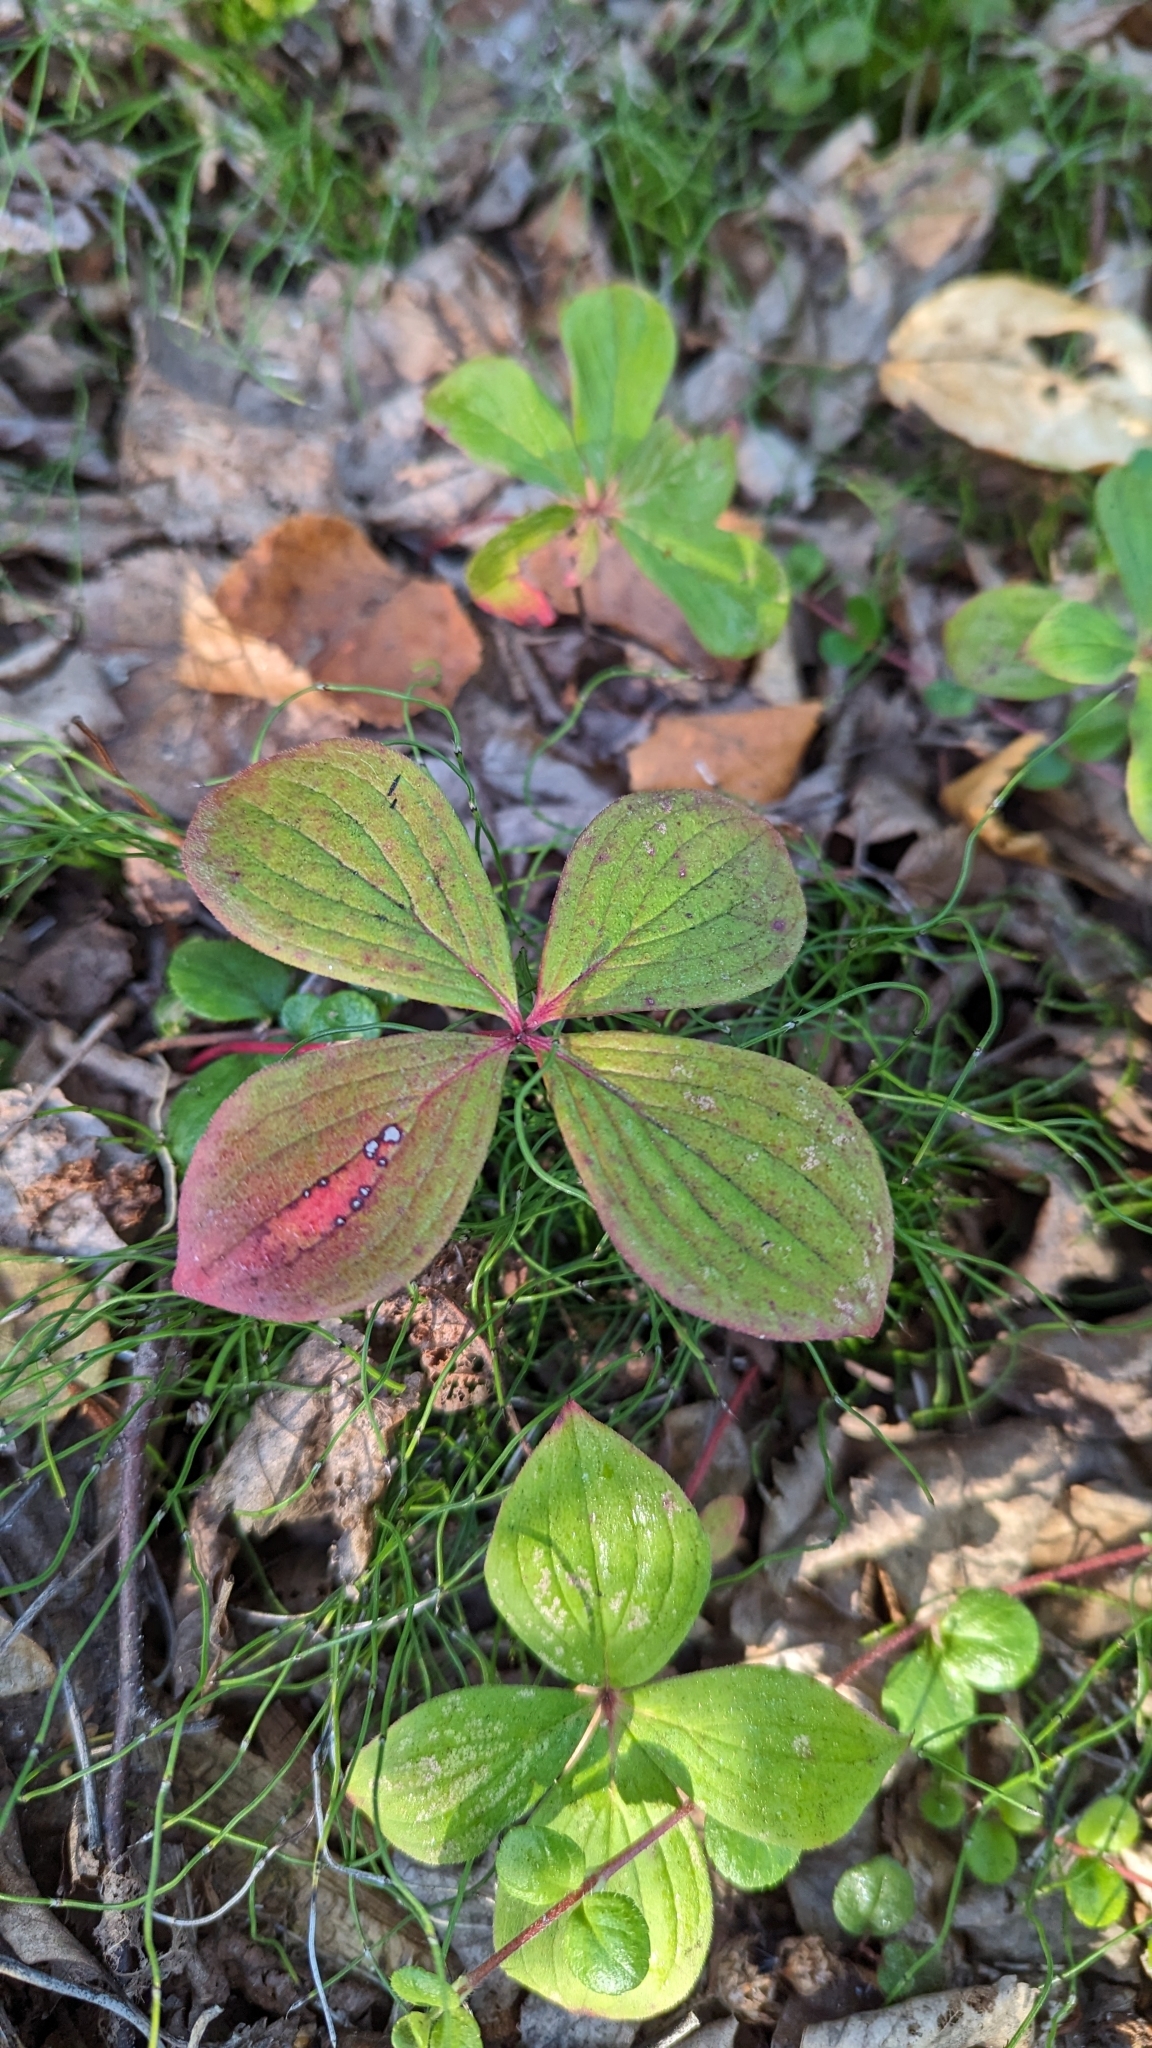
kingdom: Plantae
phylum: Tracheophyta
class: Magnoliopsida
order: Cornales
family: Cornaceae
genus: Cornus
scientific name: Cornus canadensis
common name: Creeping dogwood
